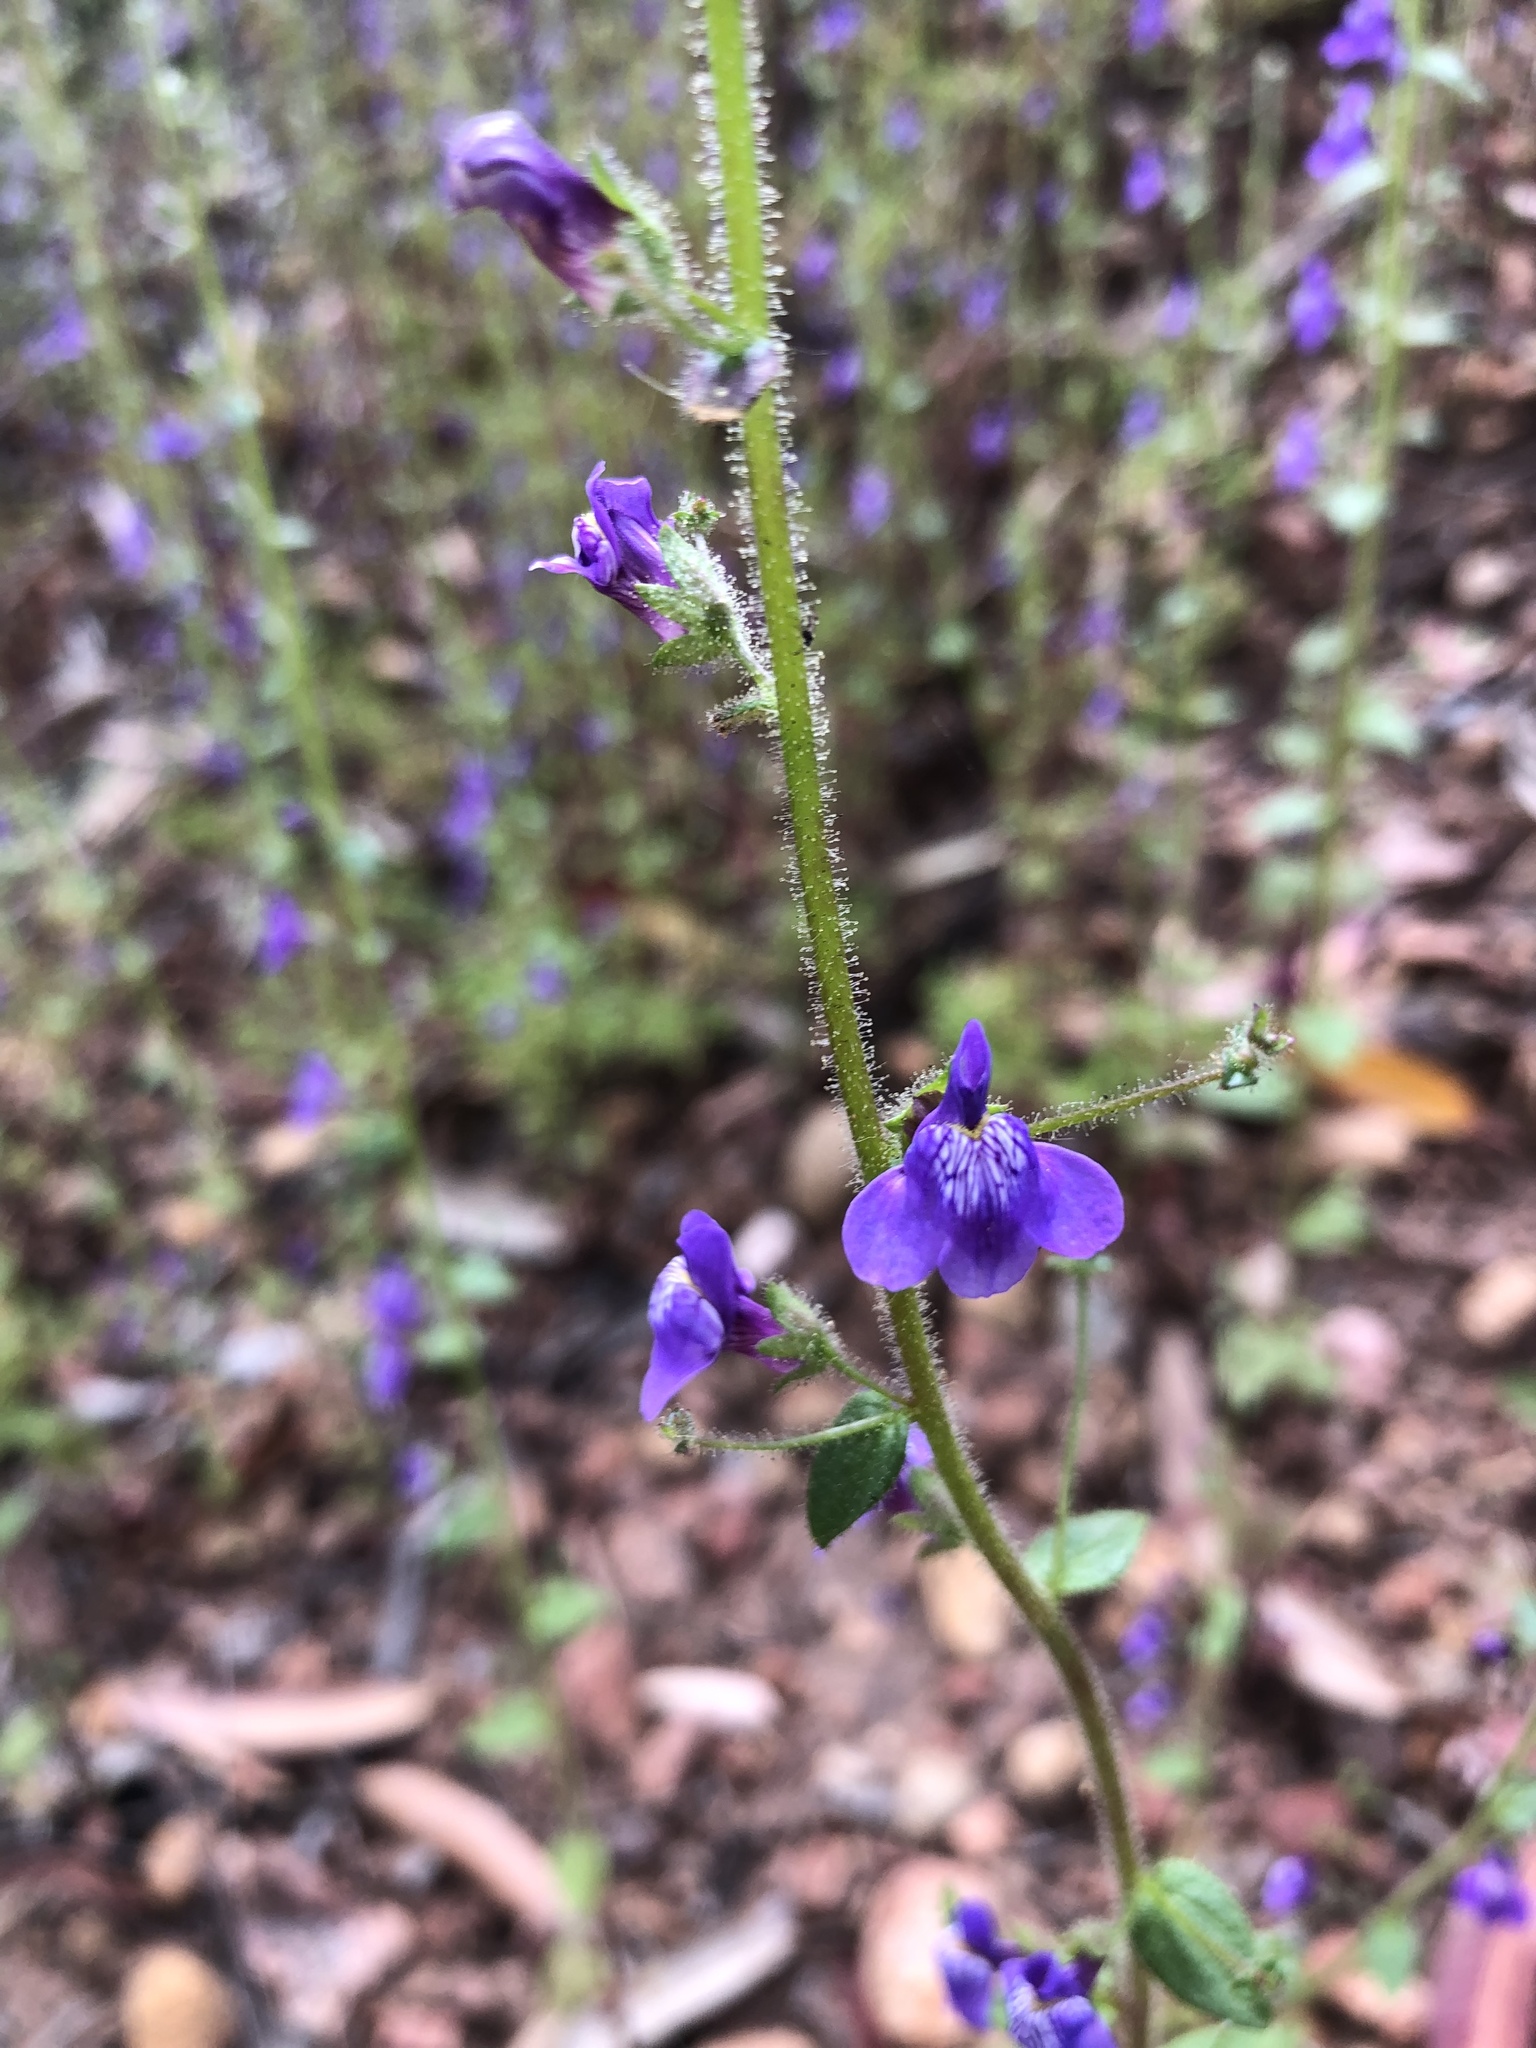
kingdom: Plantae
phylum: Tracheophyta
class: Magnoliopsida
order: Lamiales
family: Plantaginaceae
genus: Sairocarpus
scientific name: Sairocarpus nuttallianus
